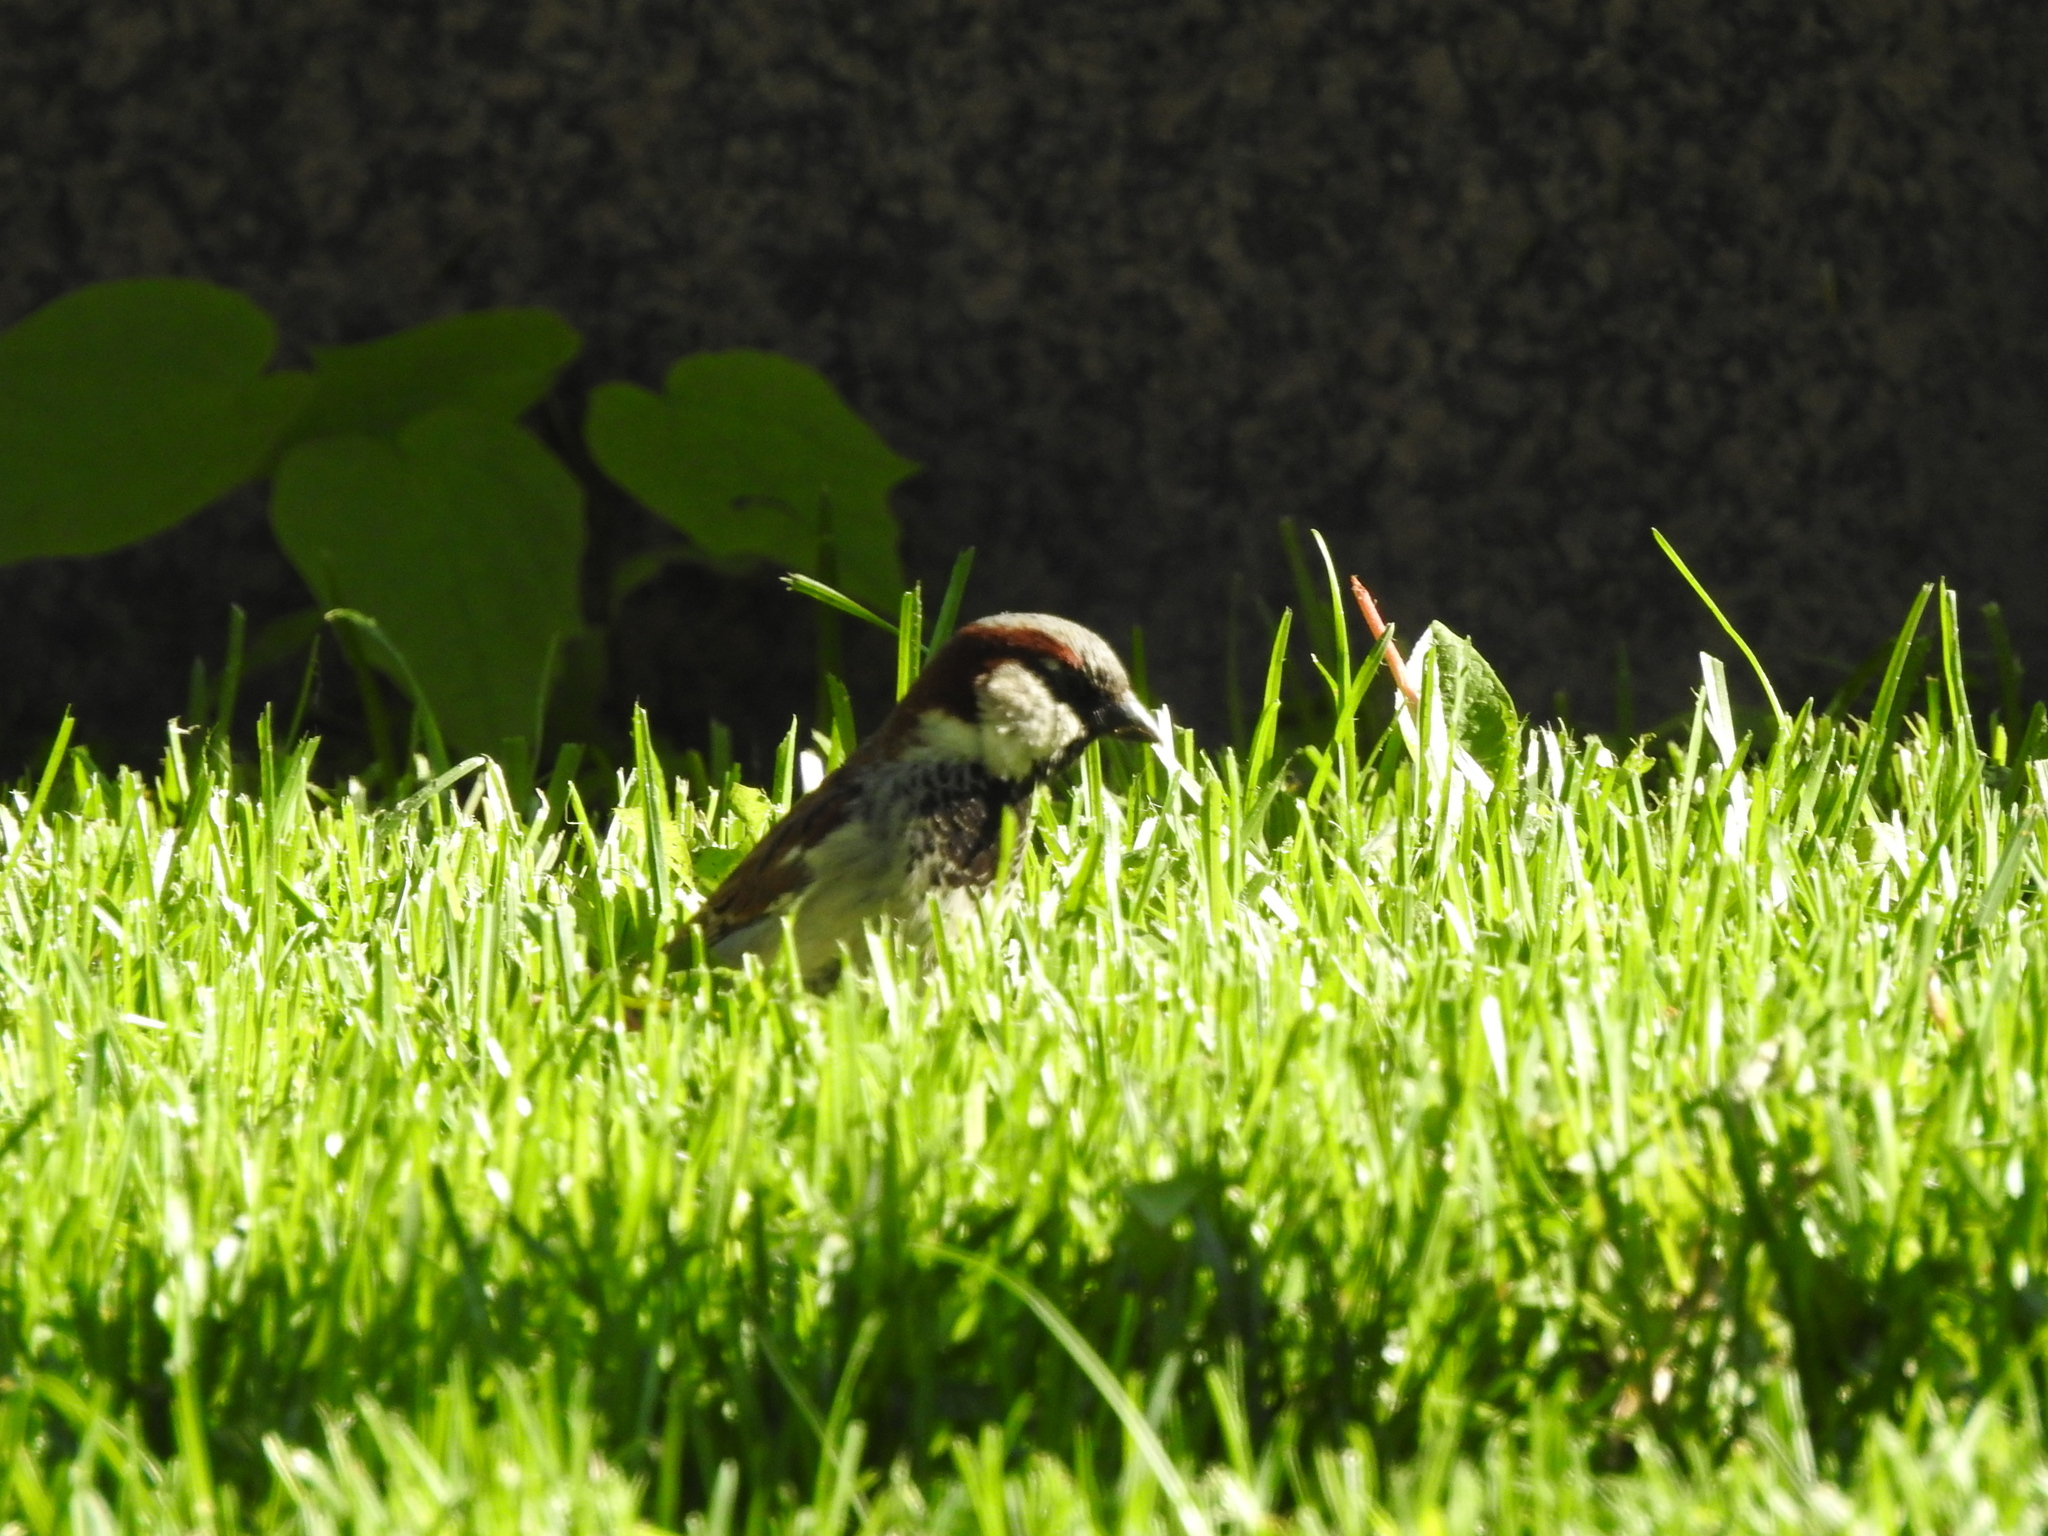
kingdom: Animalia
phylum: Chordata
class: Aves
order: Passeriformes
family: Passeridae
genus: Passer
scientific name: Passer domesticus
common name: House sparrow
